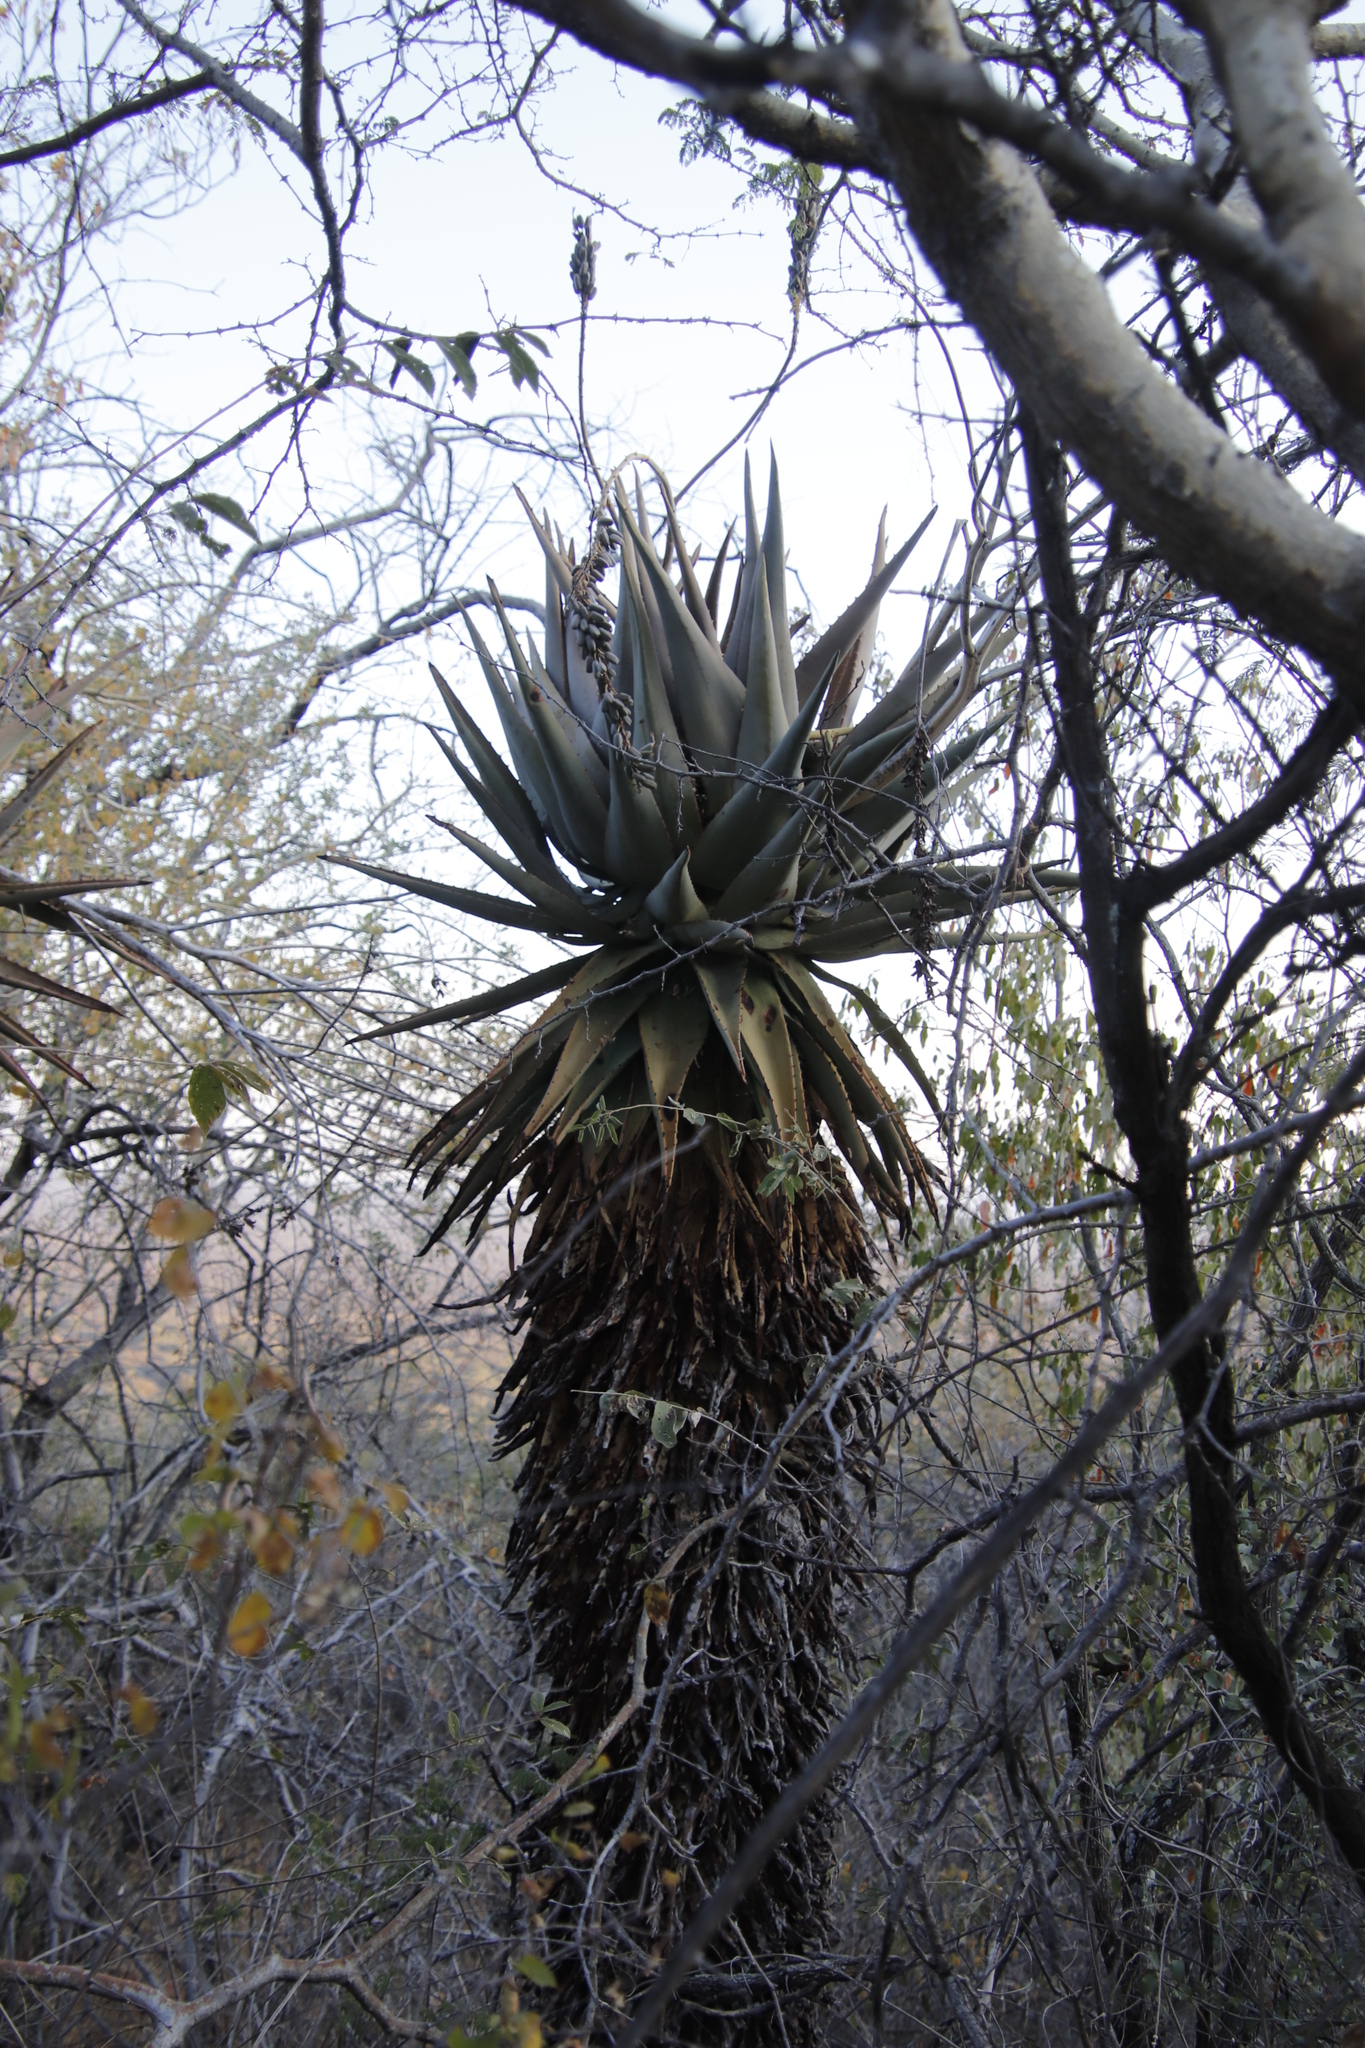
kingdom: Plantae
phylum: Tracheophyta
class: Liliopsida
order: Asparagales
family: Asphodelaceae
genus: Aloe
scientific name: Aloe littoralis
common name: Luanda tree aloe
